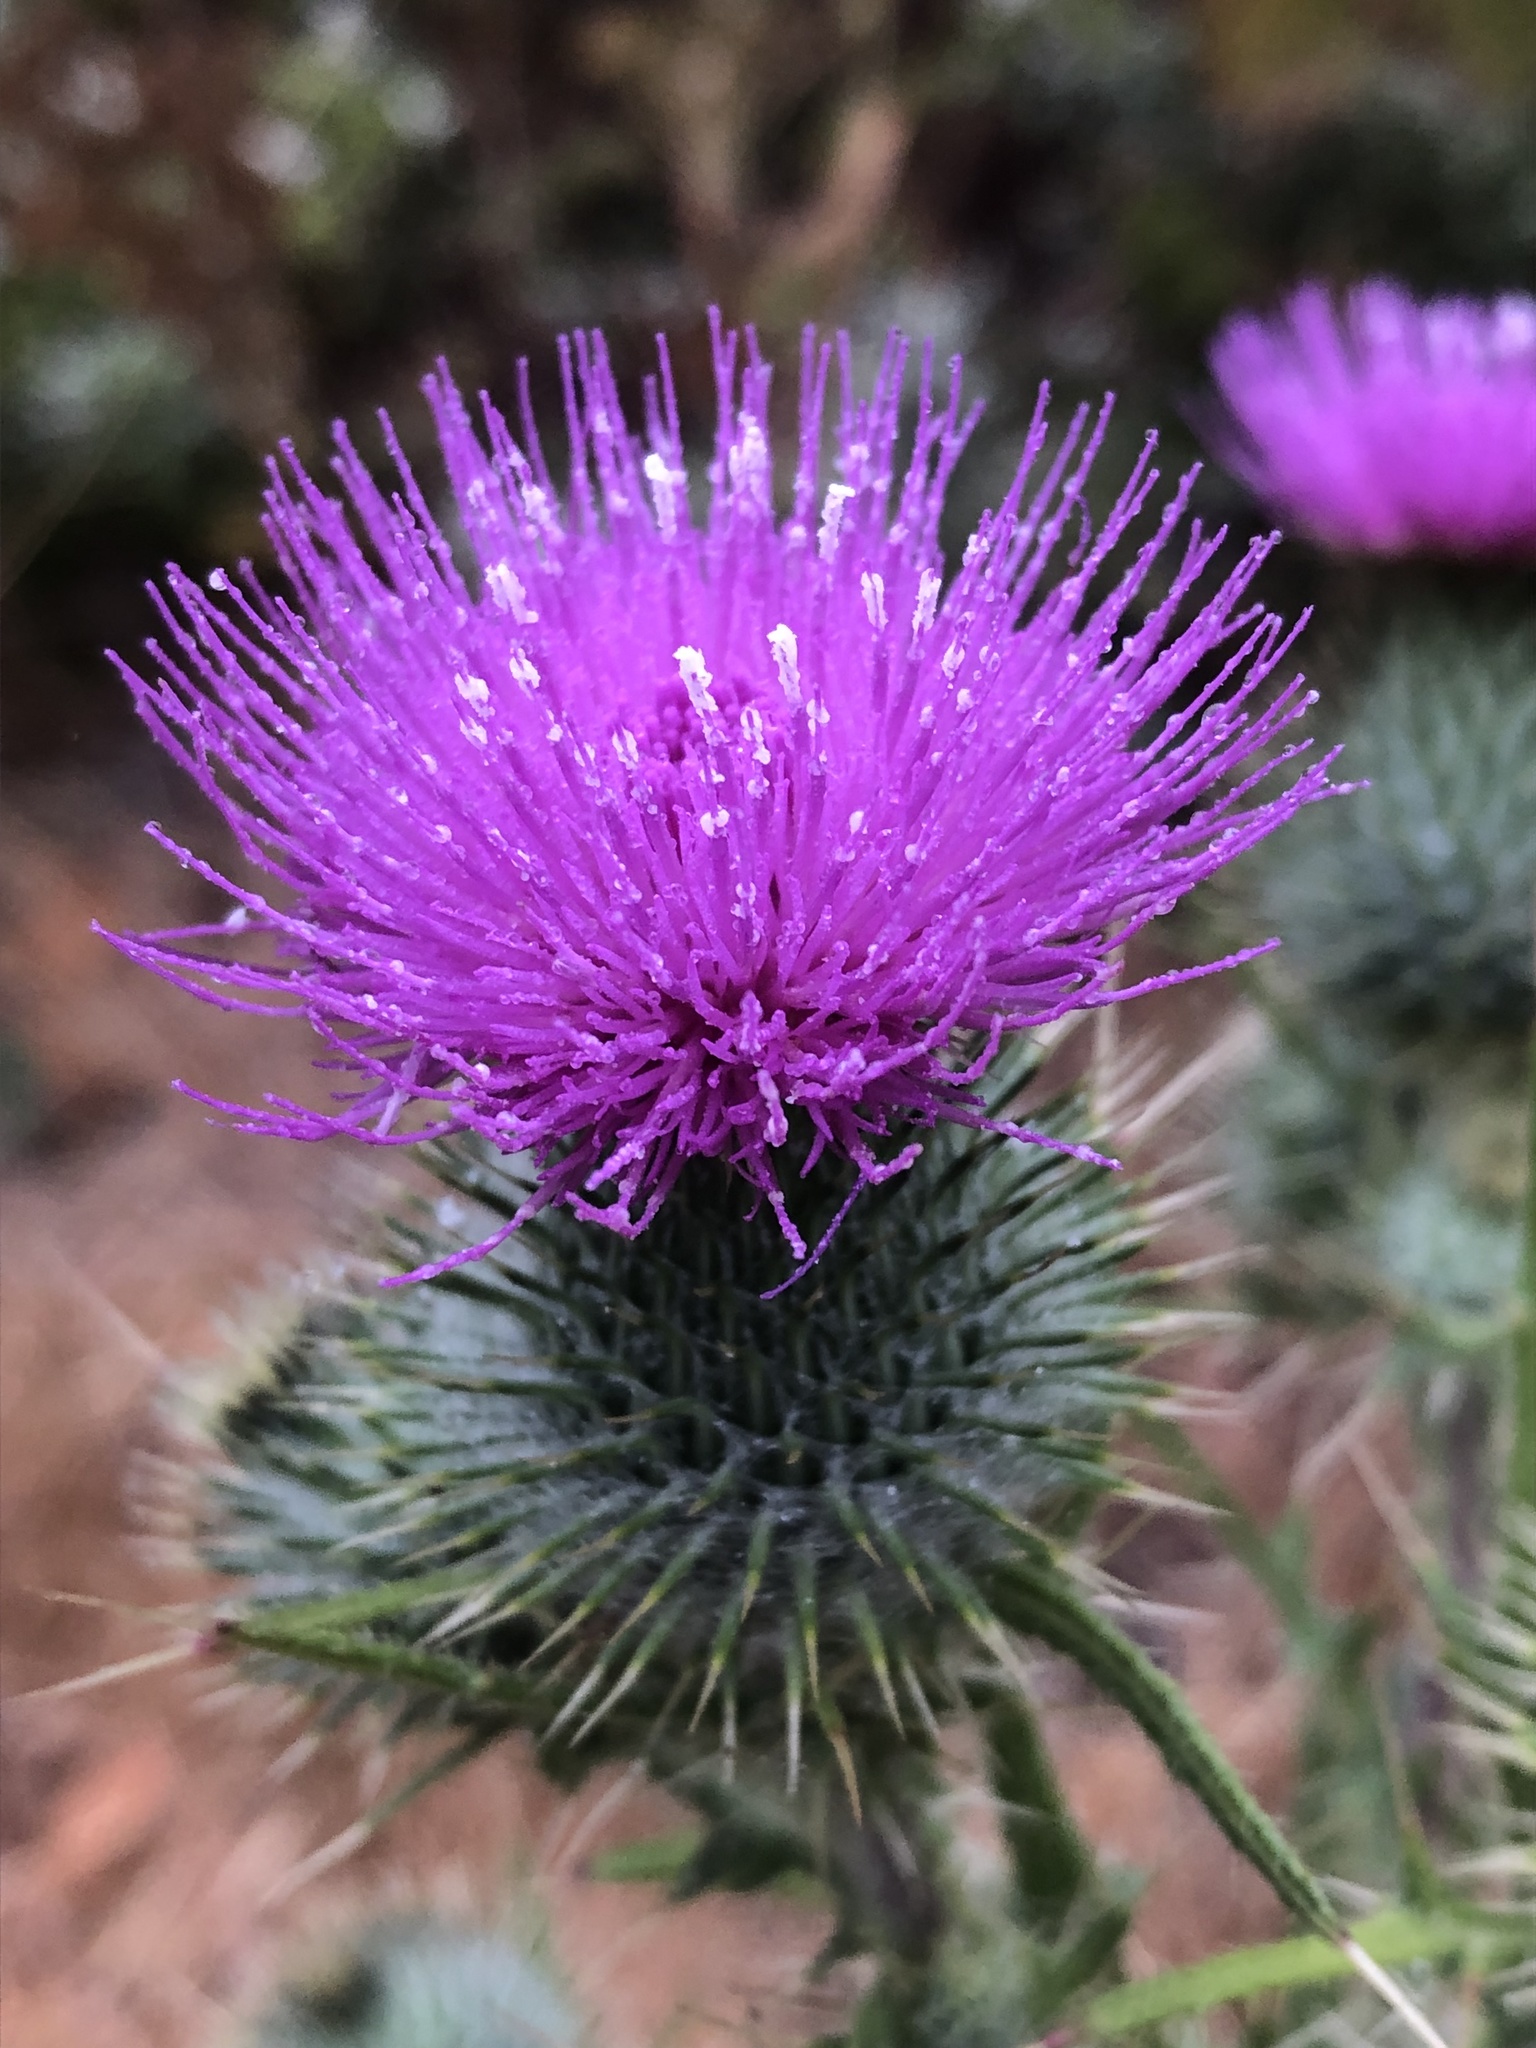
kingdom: Plantae
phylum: Tracheophyta
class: Magnoliopsida
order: Asterales
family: Asteraceae
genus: Cirsium
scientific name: Cirsium vulgare
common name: Bull thistle
